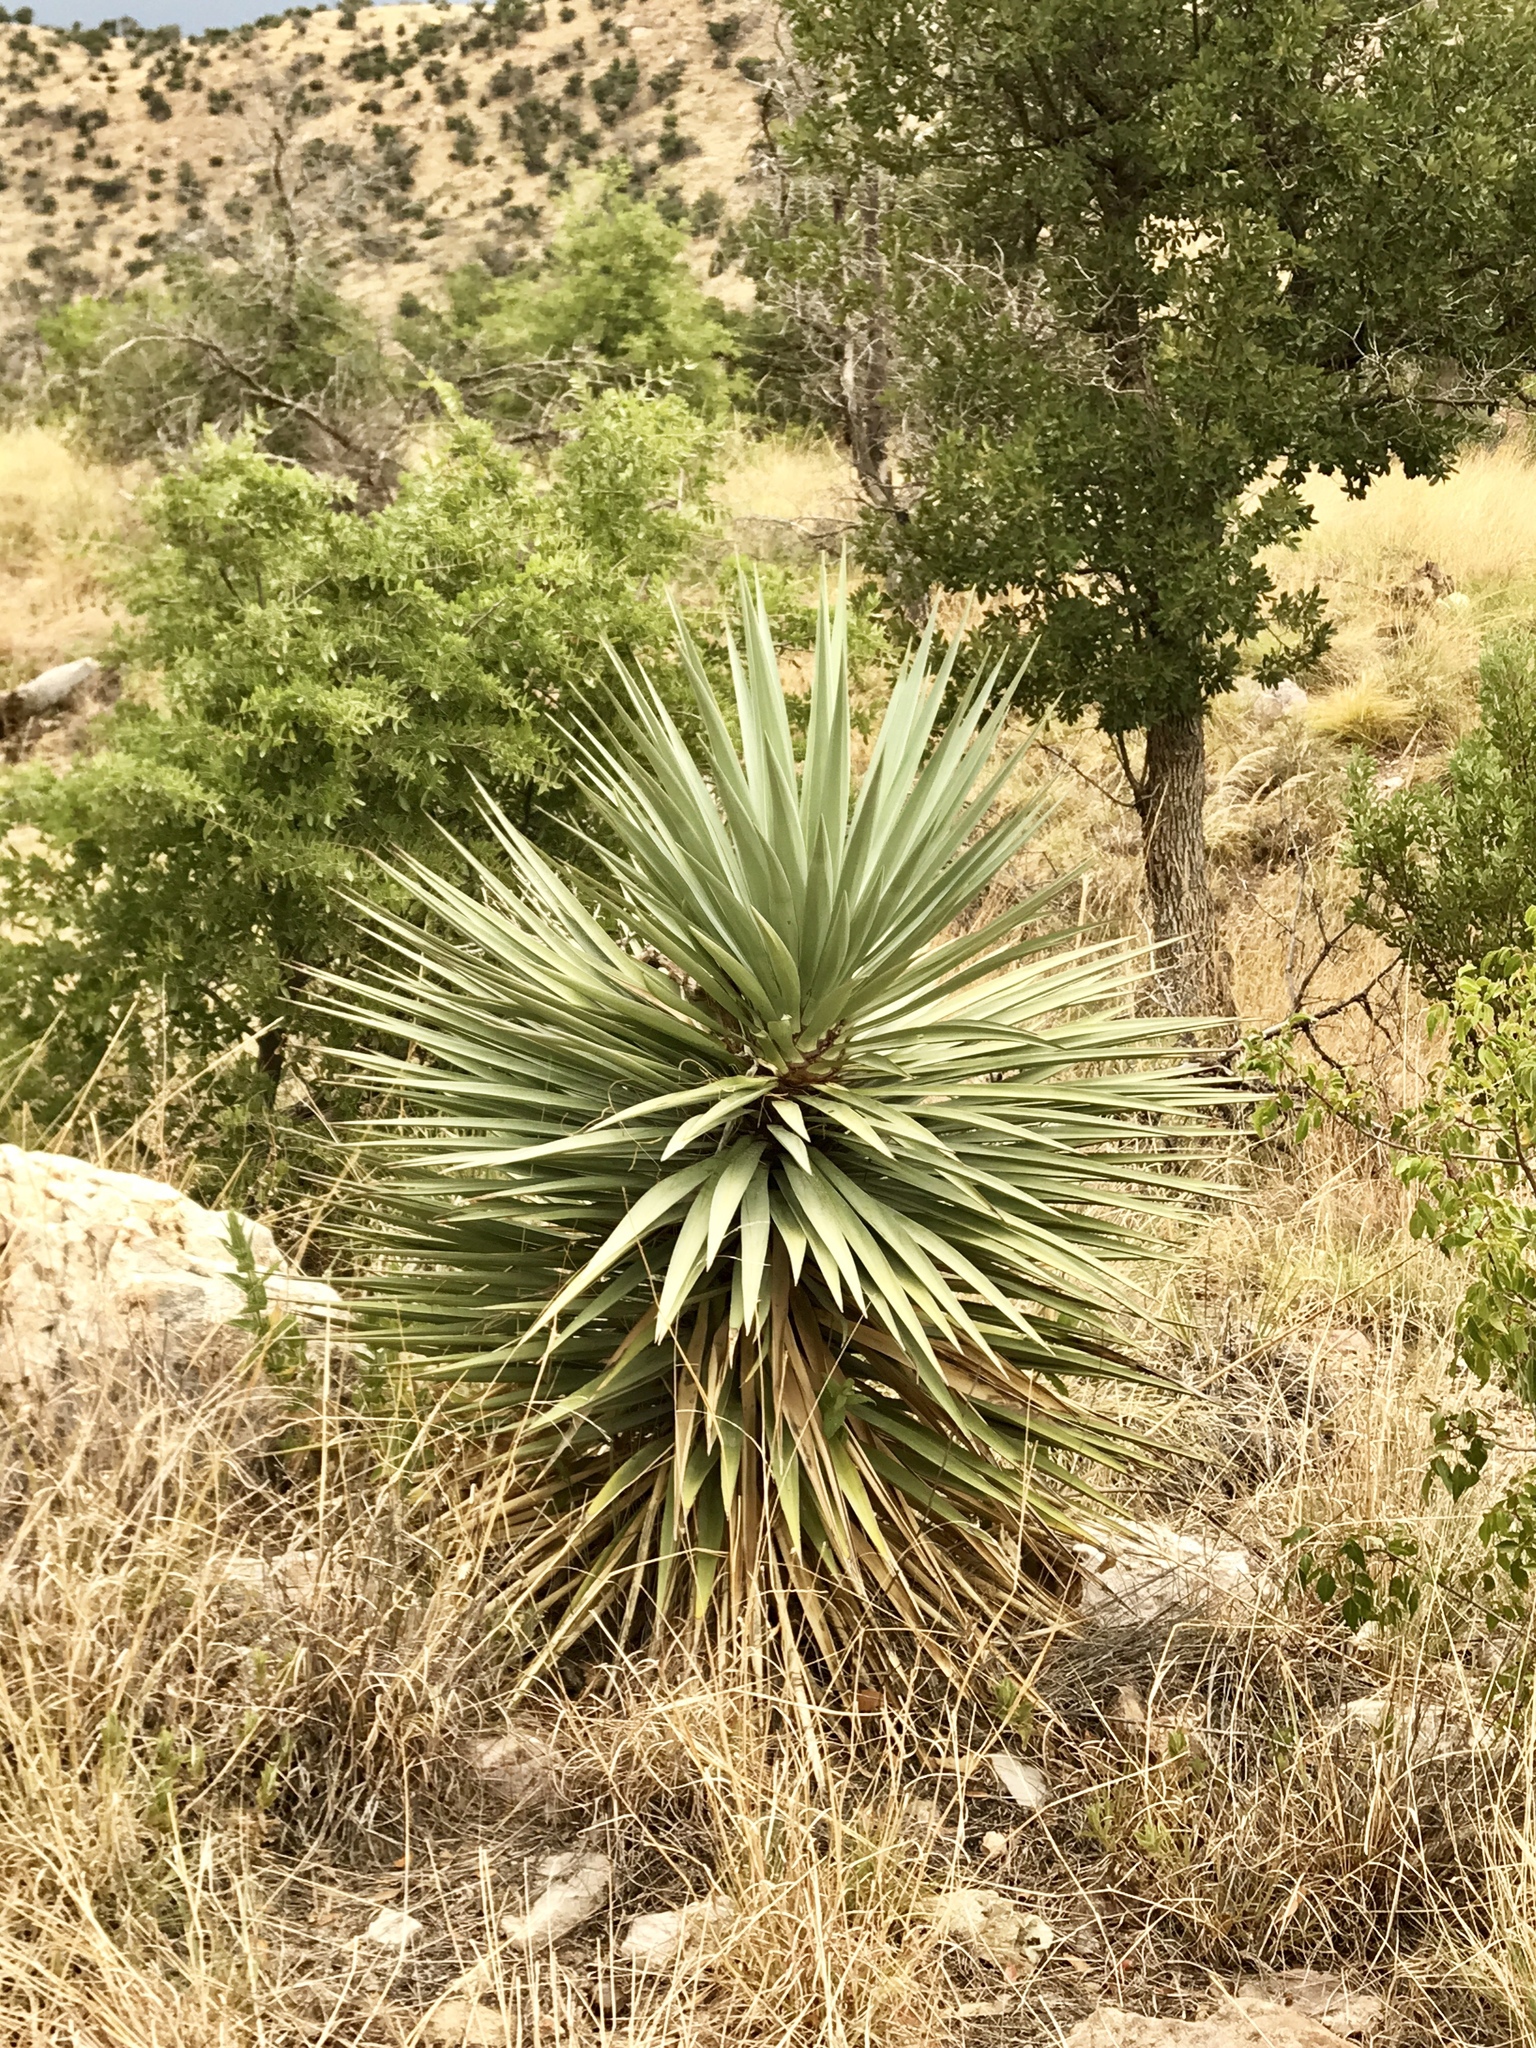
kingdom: Plantae
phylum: Tracheophyta
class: Liliopsida
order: Asparagales
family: Asparagaceae
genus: Yucca
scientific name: Yucca schottii
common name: Hoary yucca
